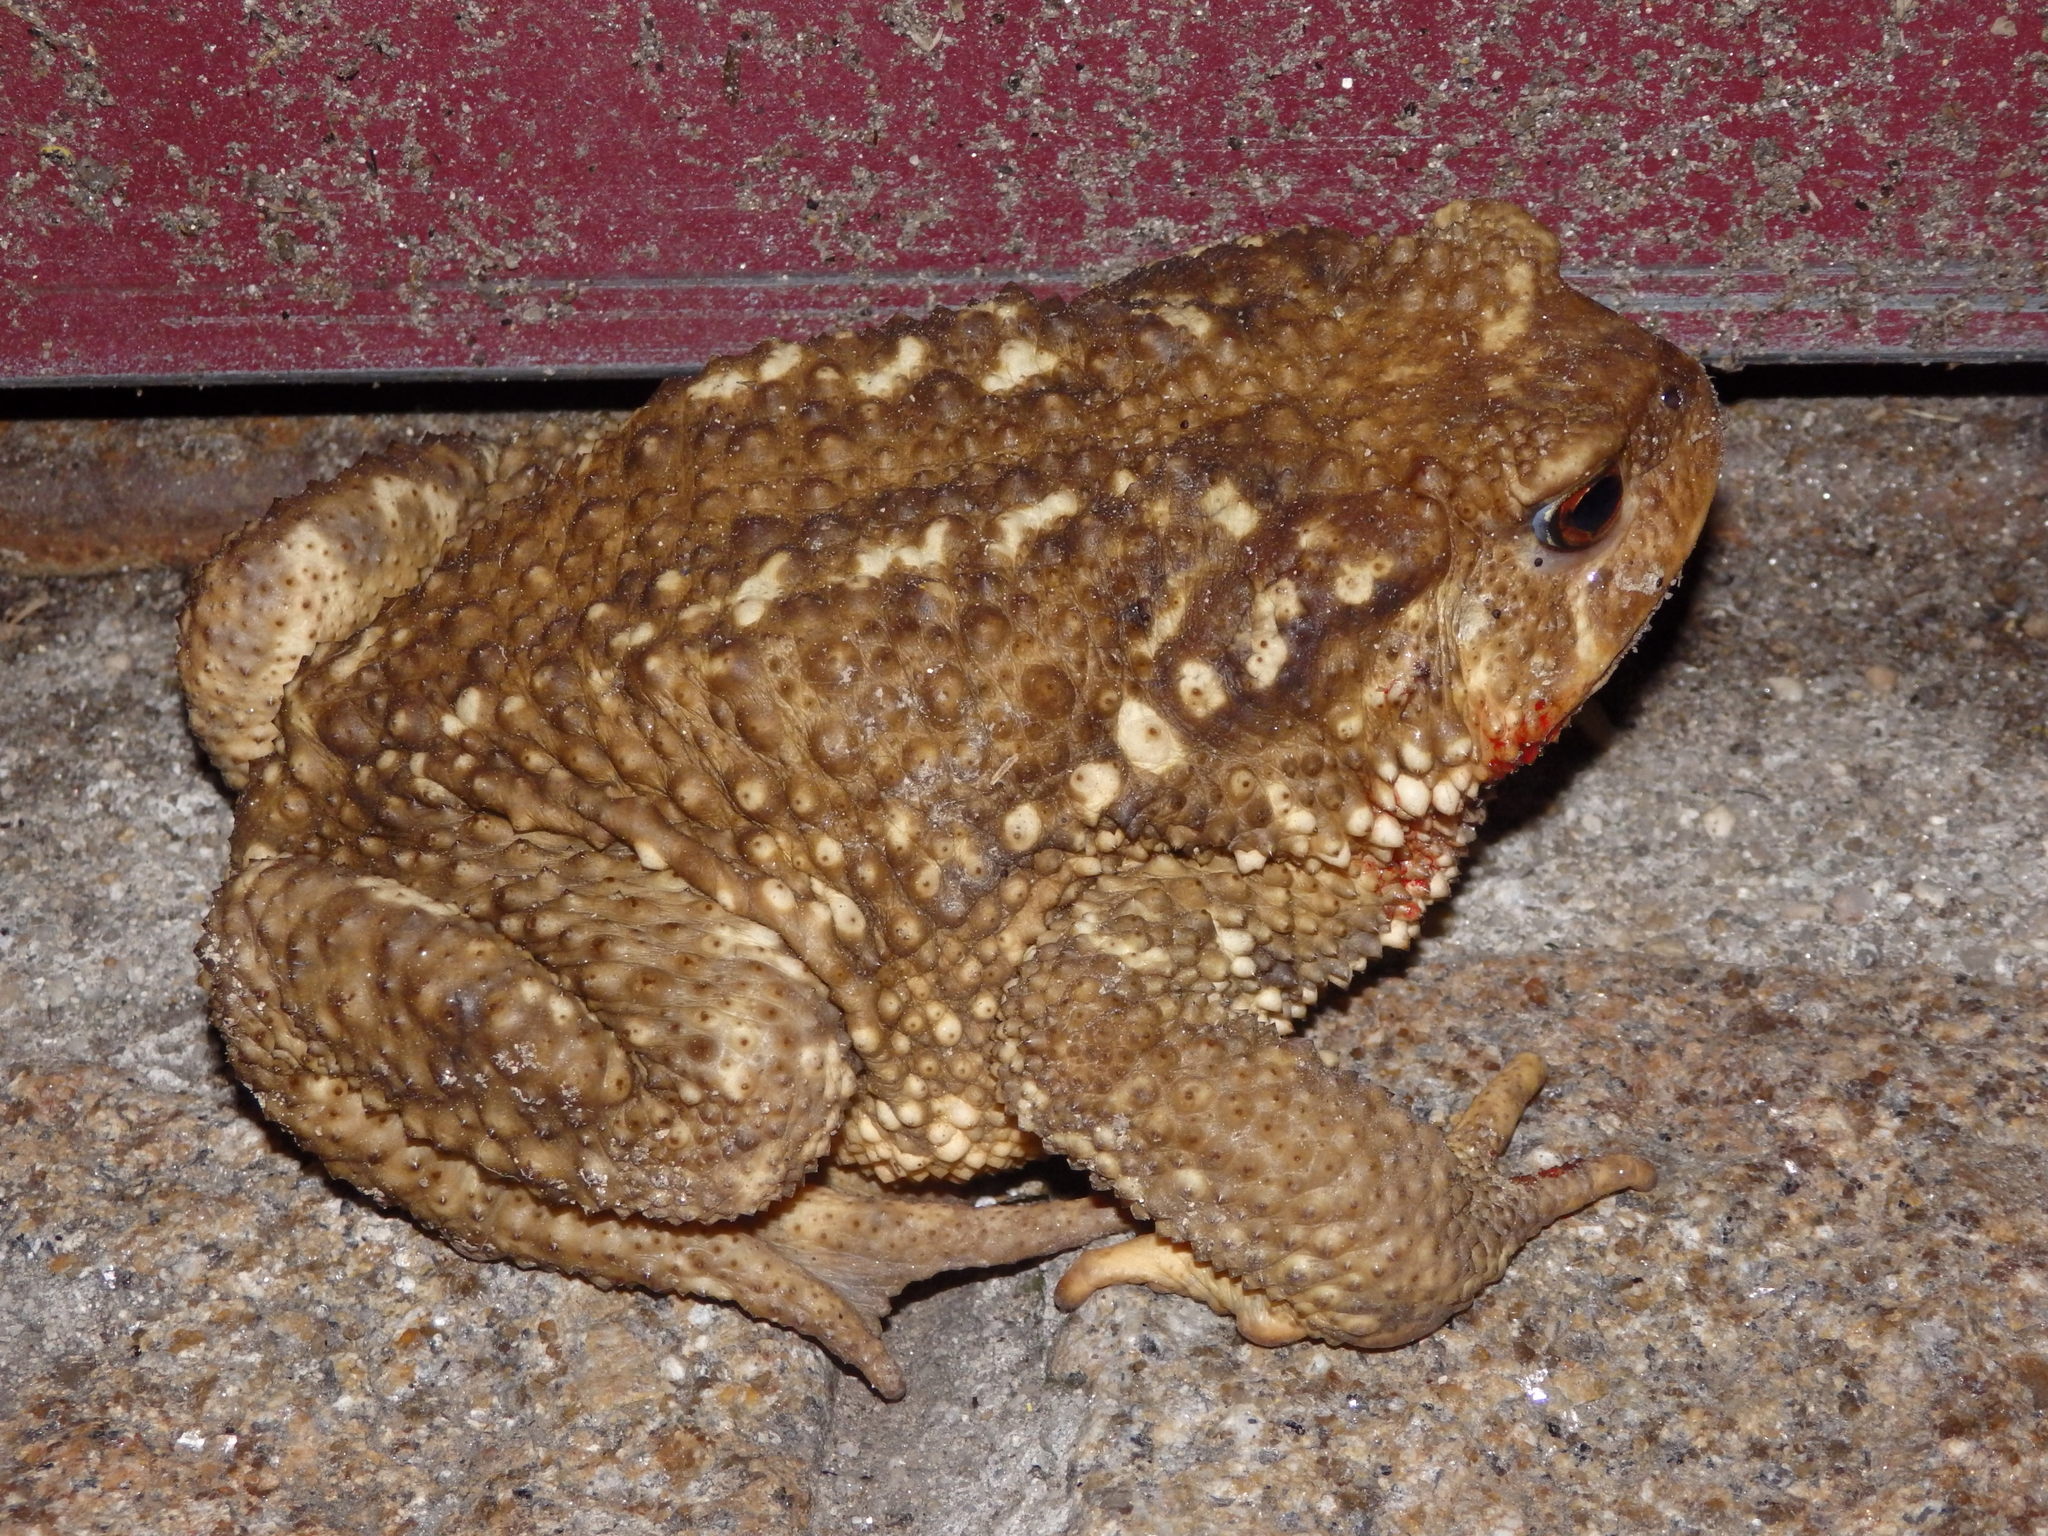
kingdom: Animalia
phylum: Chordata
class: Amphibia
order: Anura
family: Bufonidae
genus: Bufo
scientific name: Bufo spinosus
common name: Western common toad
